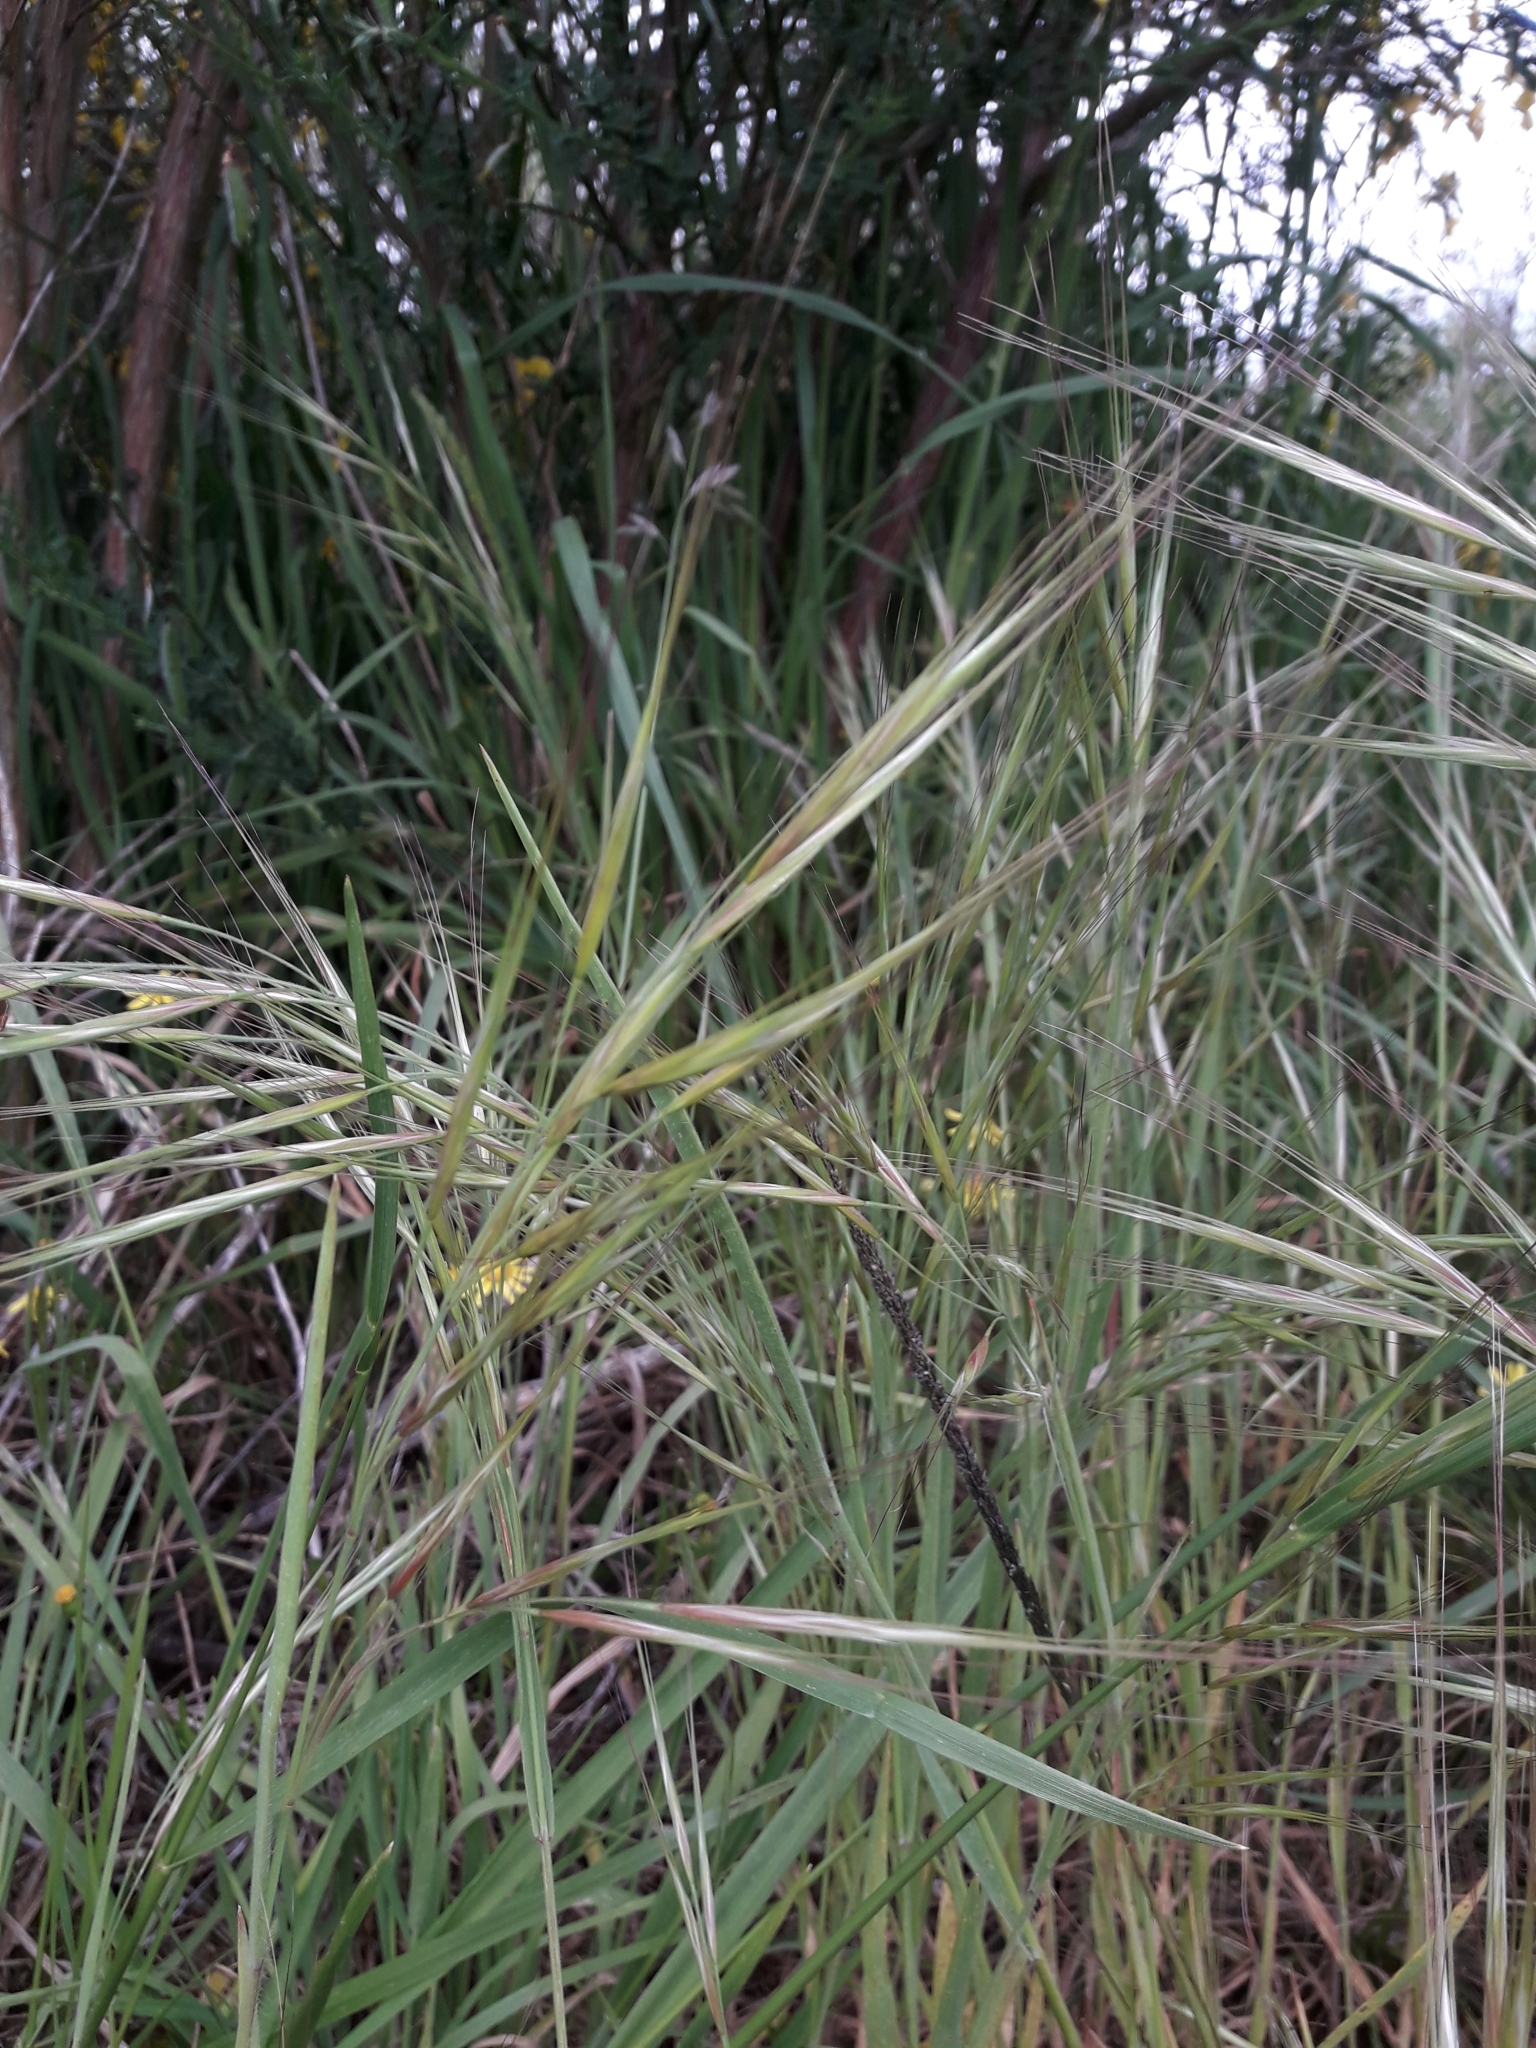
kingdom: Plantae
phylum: Tracheophyta
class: Liliopsida
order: Poales
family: Poaceae
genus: Bromus
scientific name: Bromus diandrus
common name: Ripgut brome
